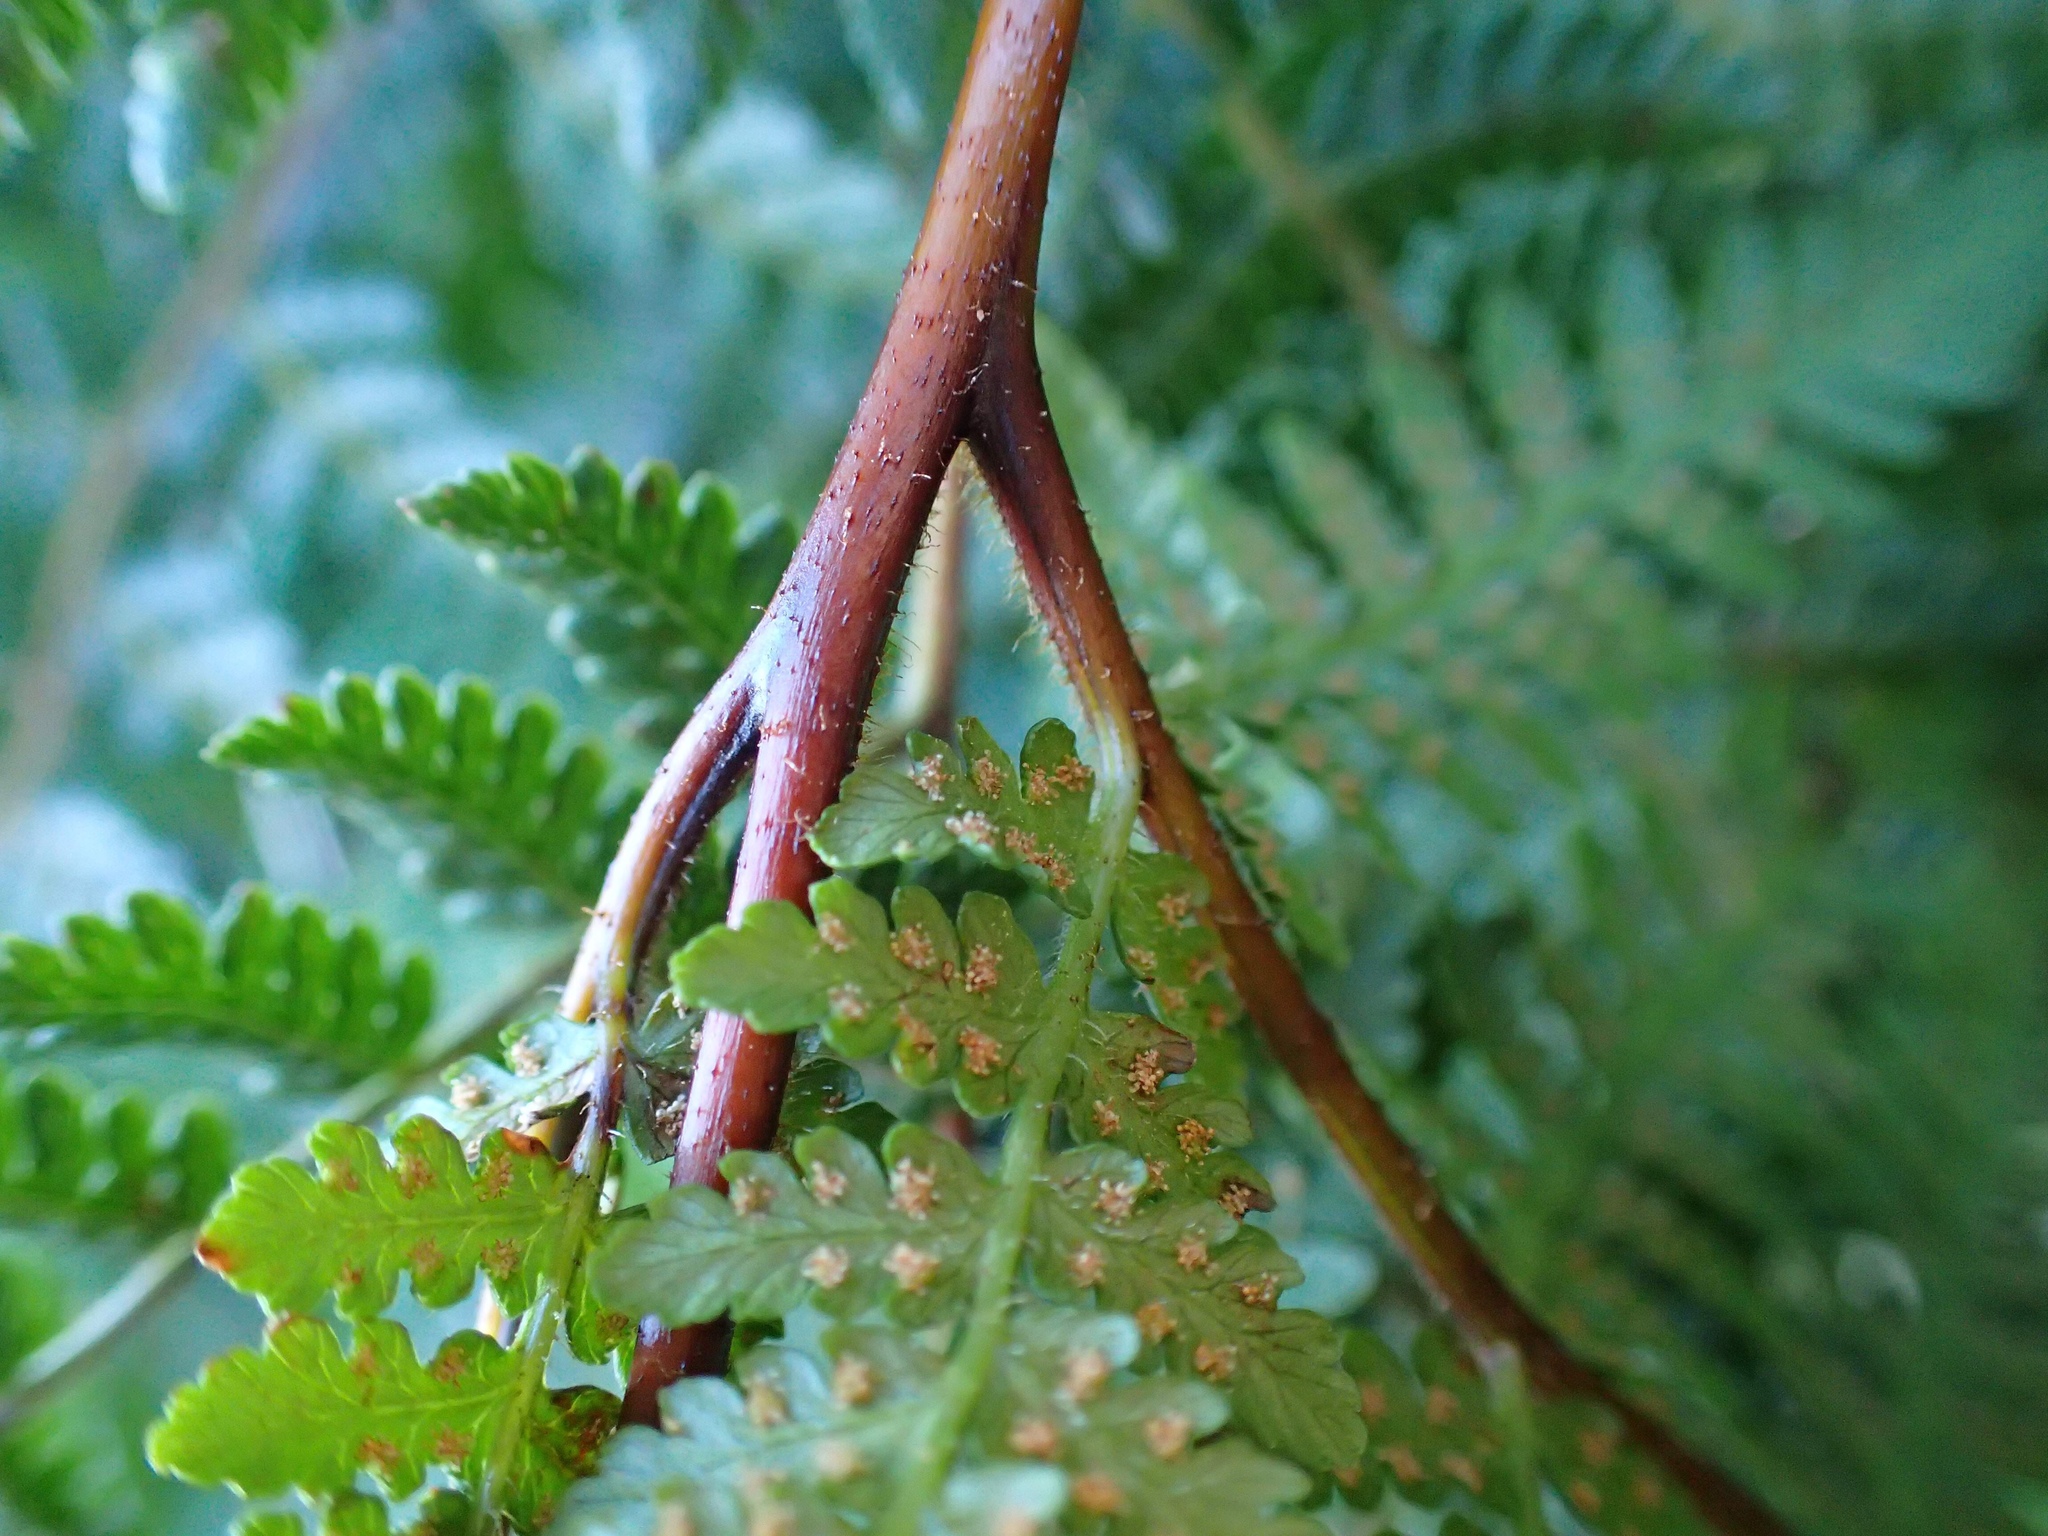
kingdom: Plantae
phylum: Tracheophyta
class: Polypodiopsida
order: Polypodiales
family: Dennstaedtiaceae
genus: Hypolepis
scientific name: Hypolepis ambigua
